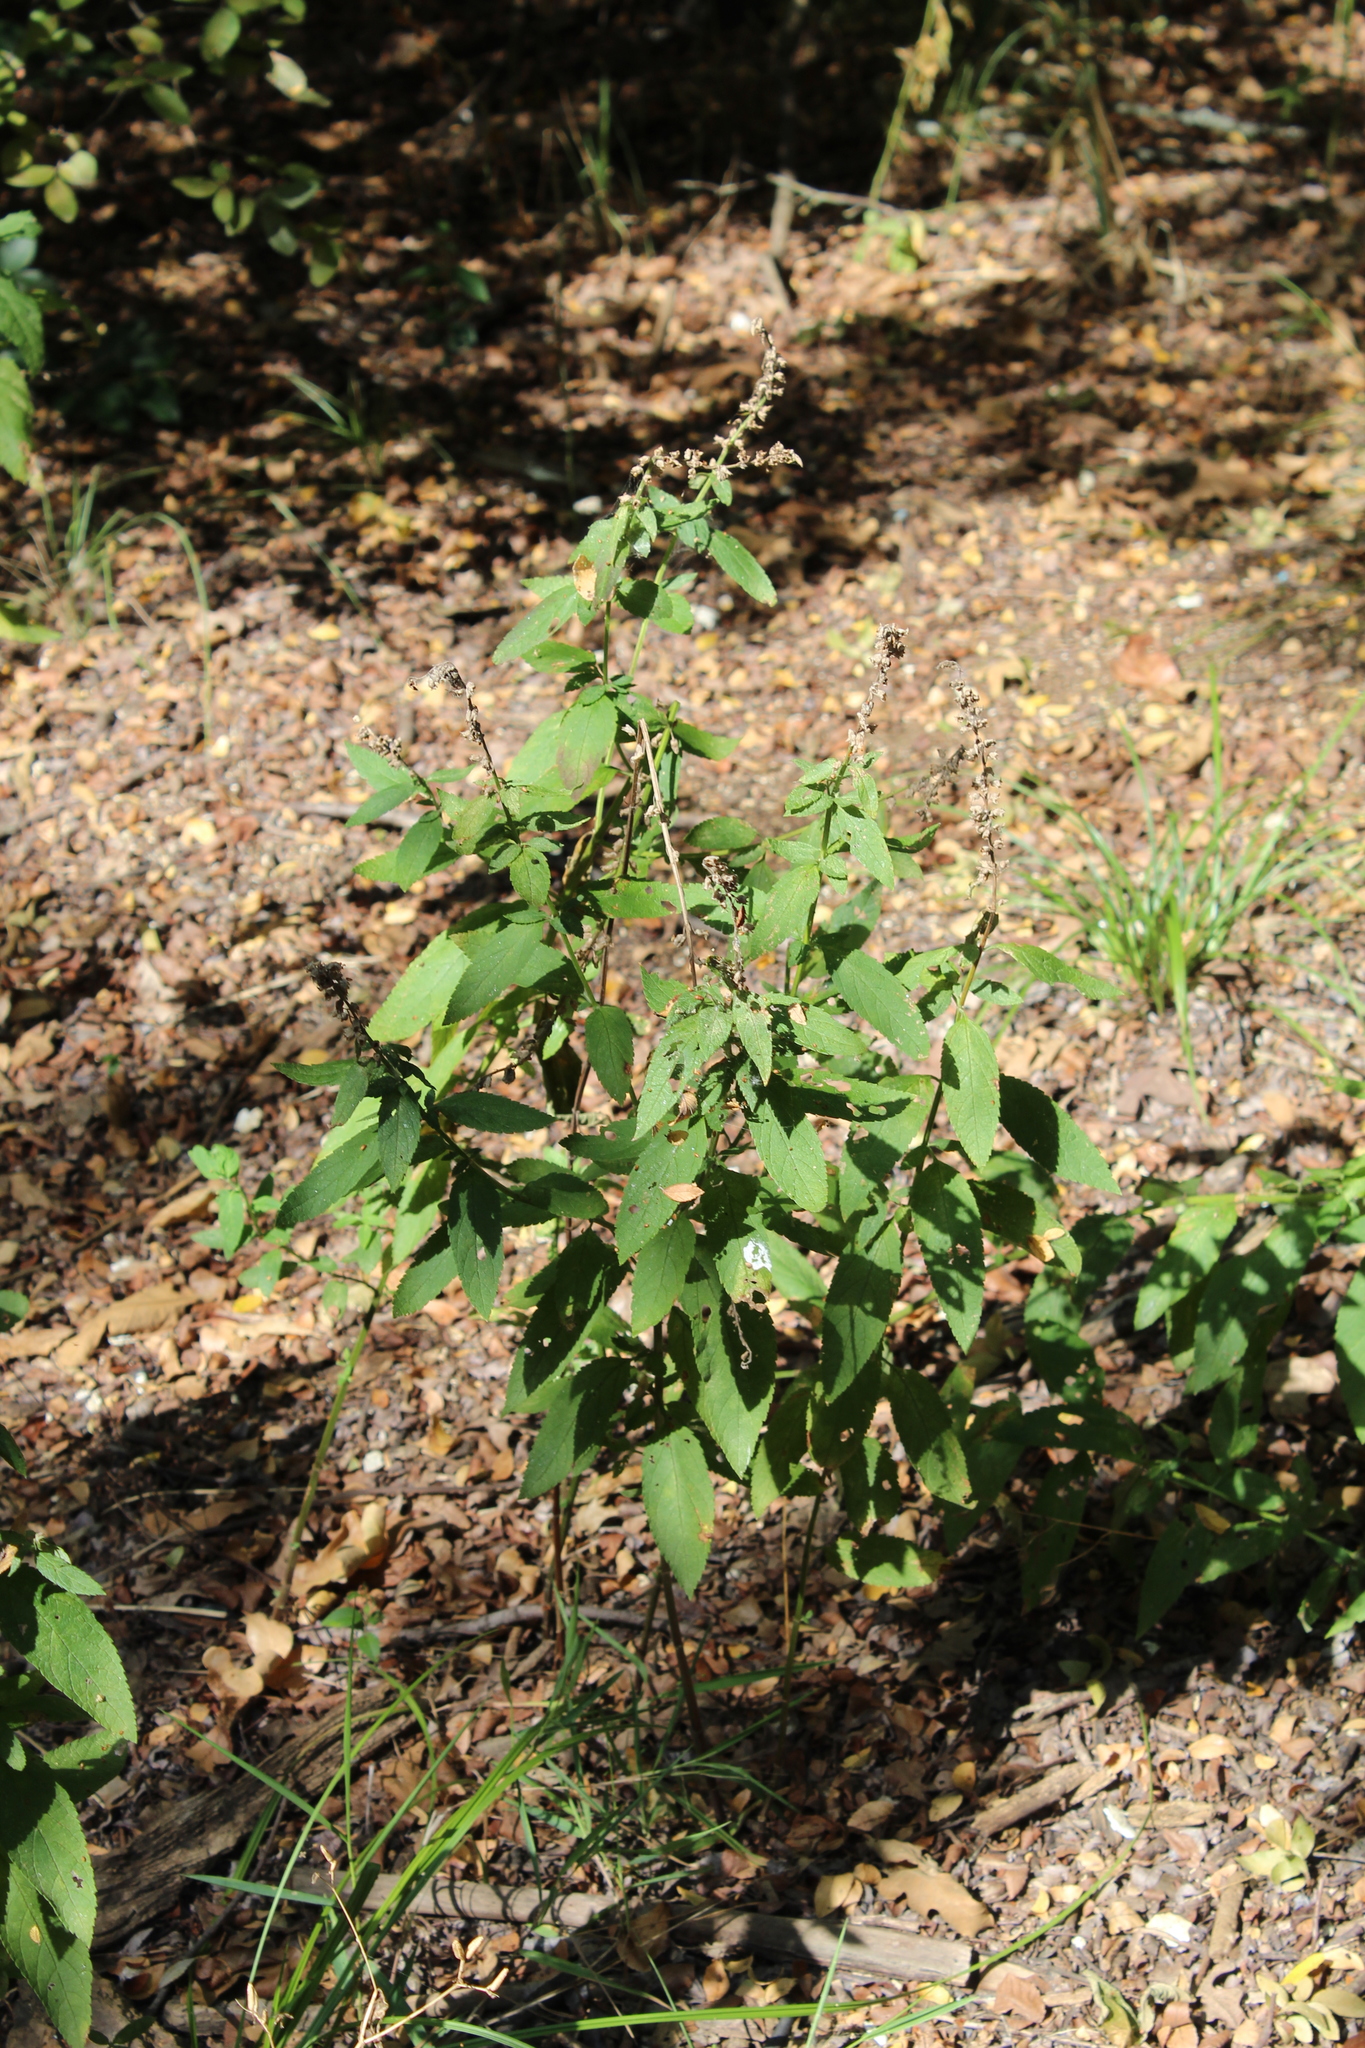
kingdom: Plantae
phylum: Tracheophyta
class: Magnoliopsida
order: Lamiales
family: Lamiaceae
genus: Teucrium
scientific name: Teucrium canadense
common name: American germander
